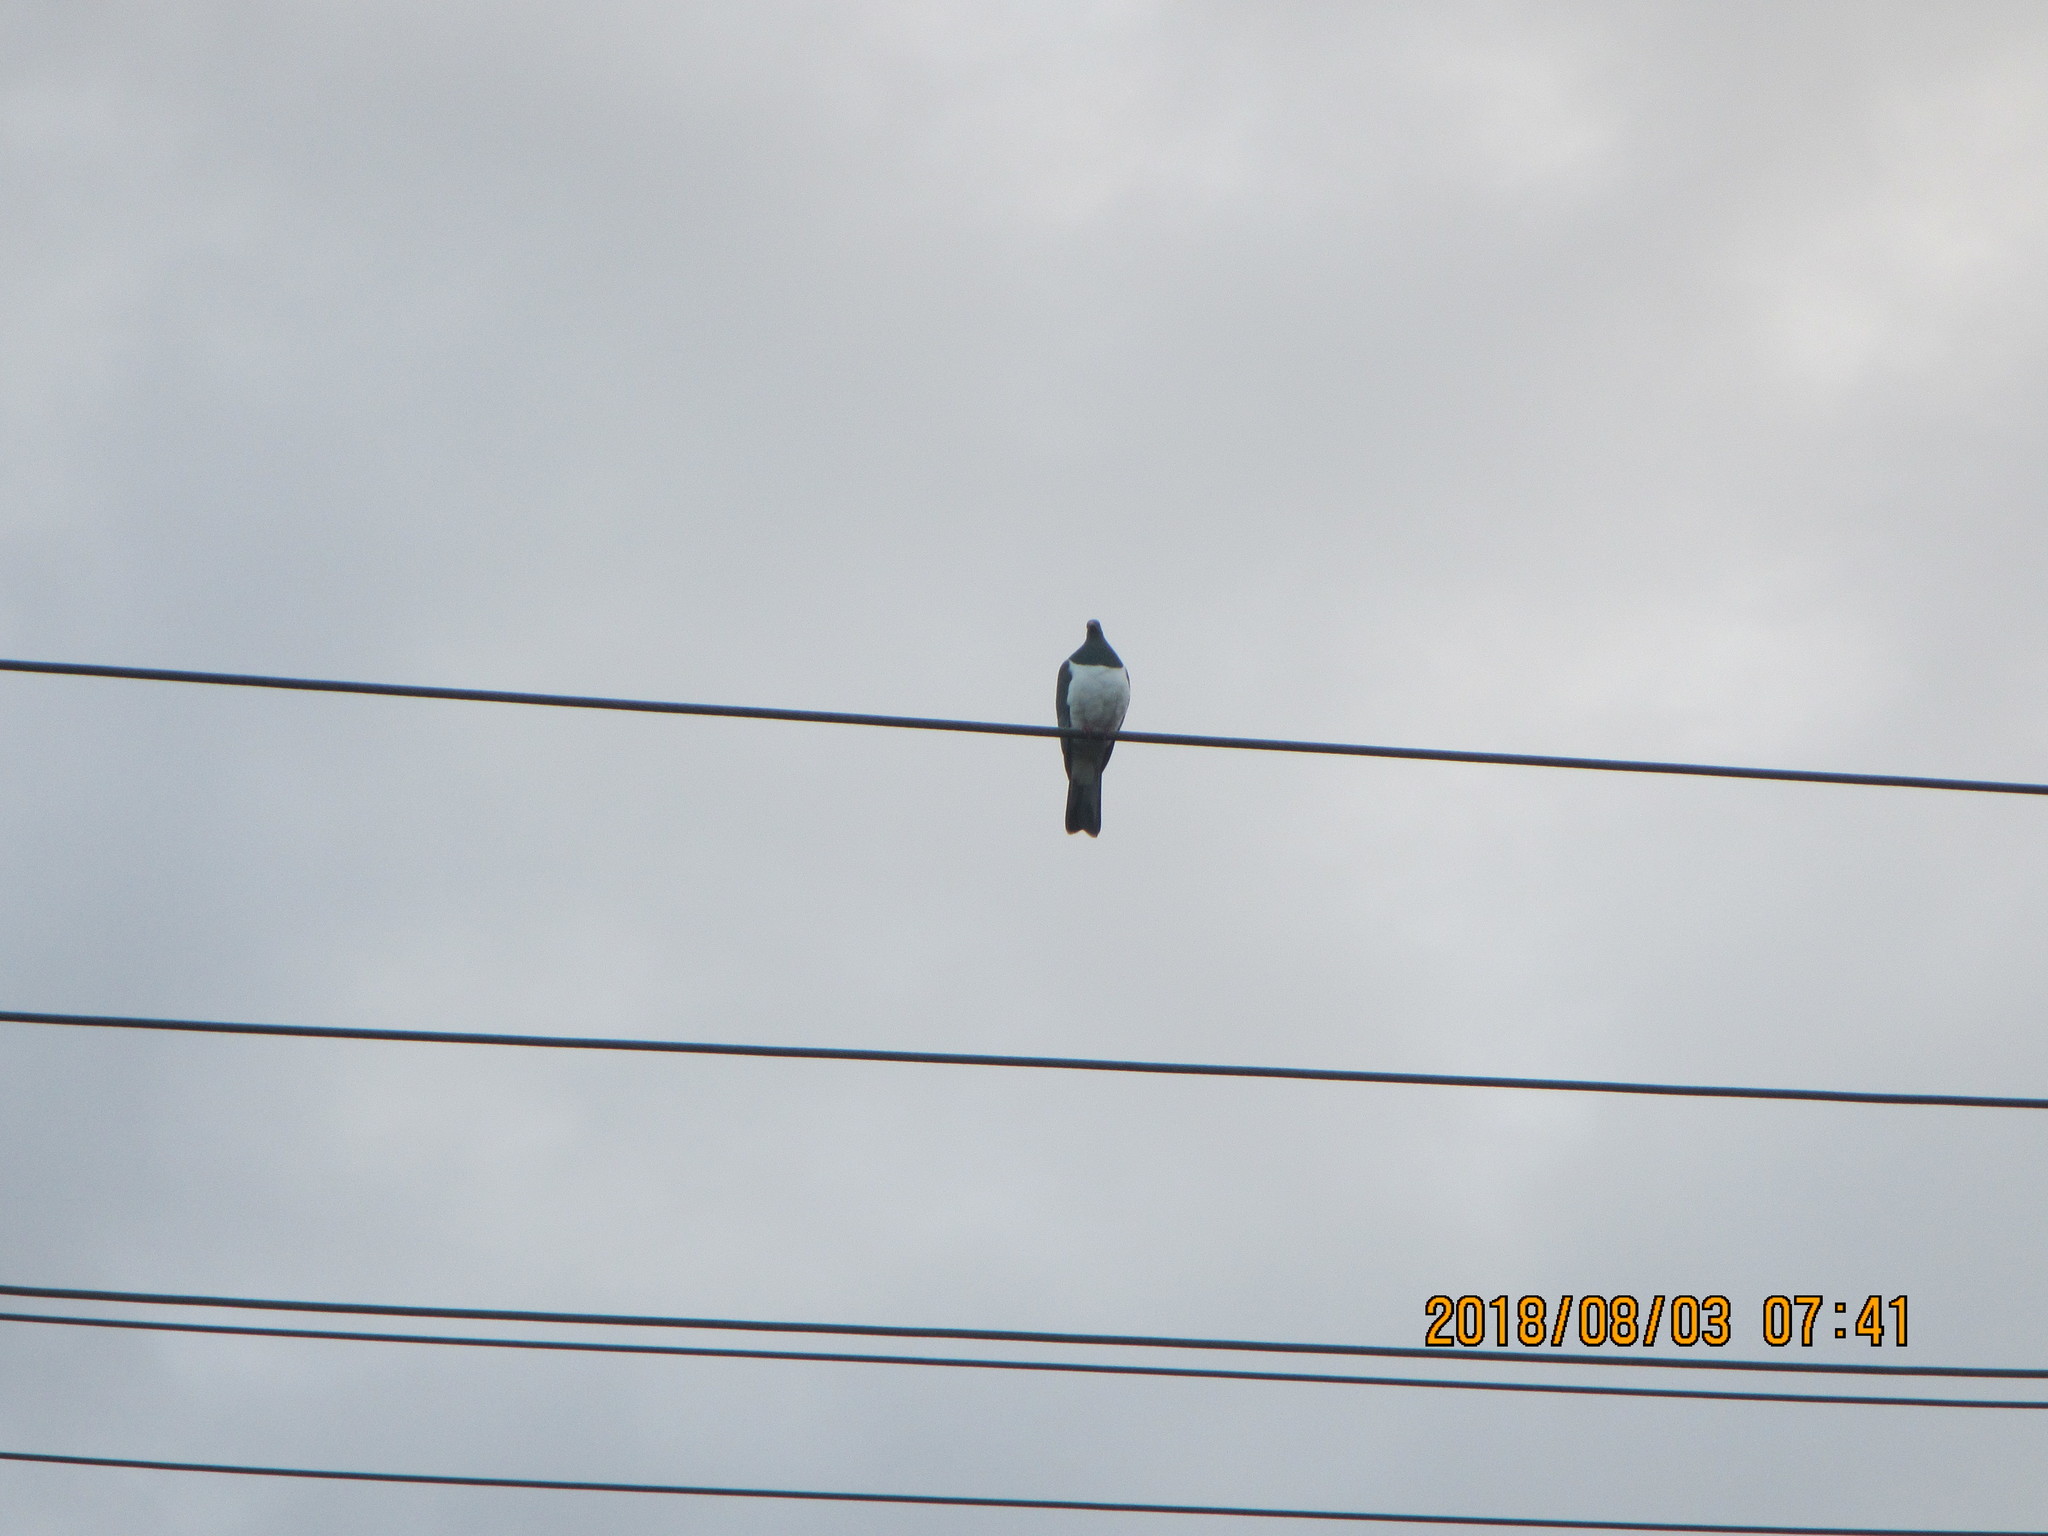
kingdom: Animalia
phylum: Chordata
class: Aves
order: Columbiformes
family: Columbidae
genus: Hemiphaga
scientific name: Hemiphaga novaeseelandiae
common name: New zealand pigeon
